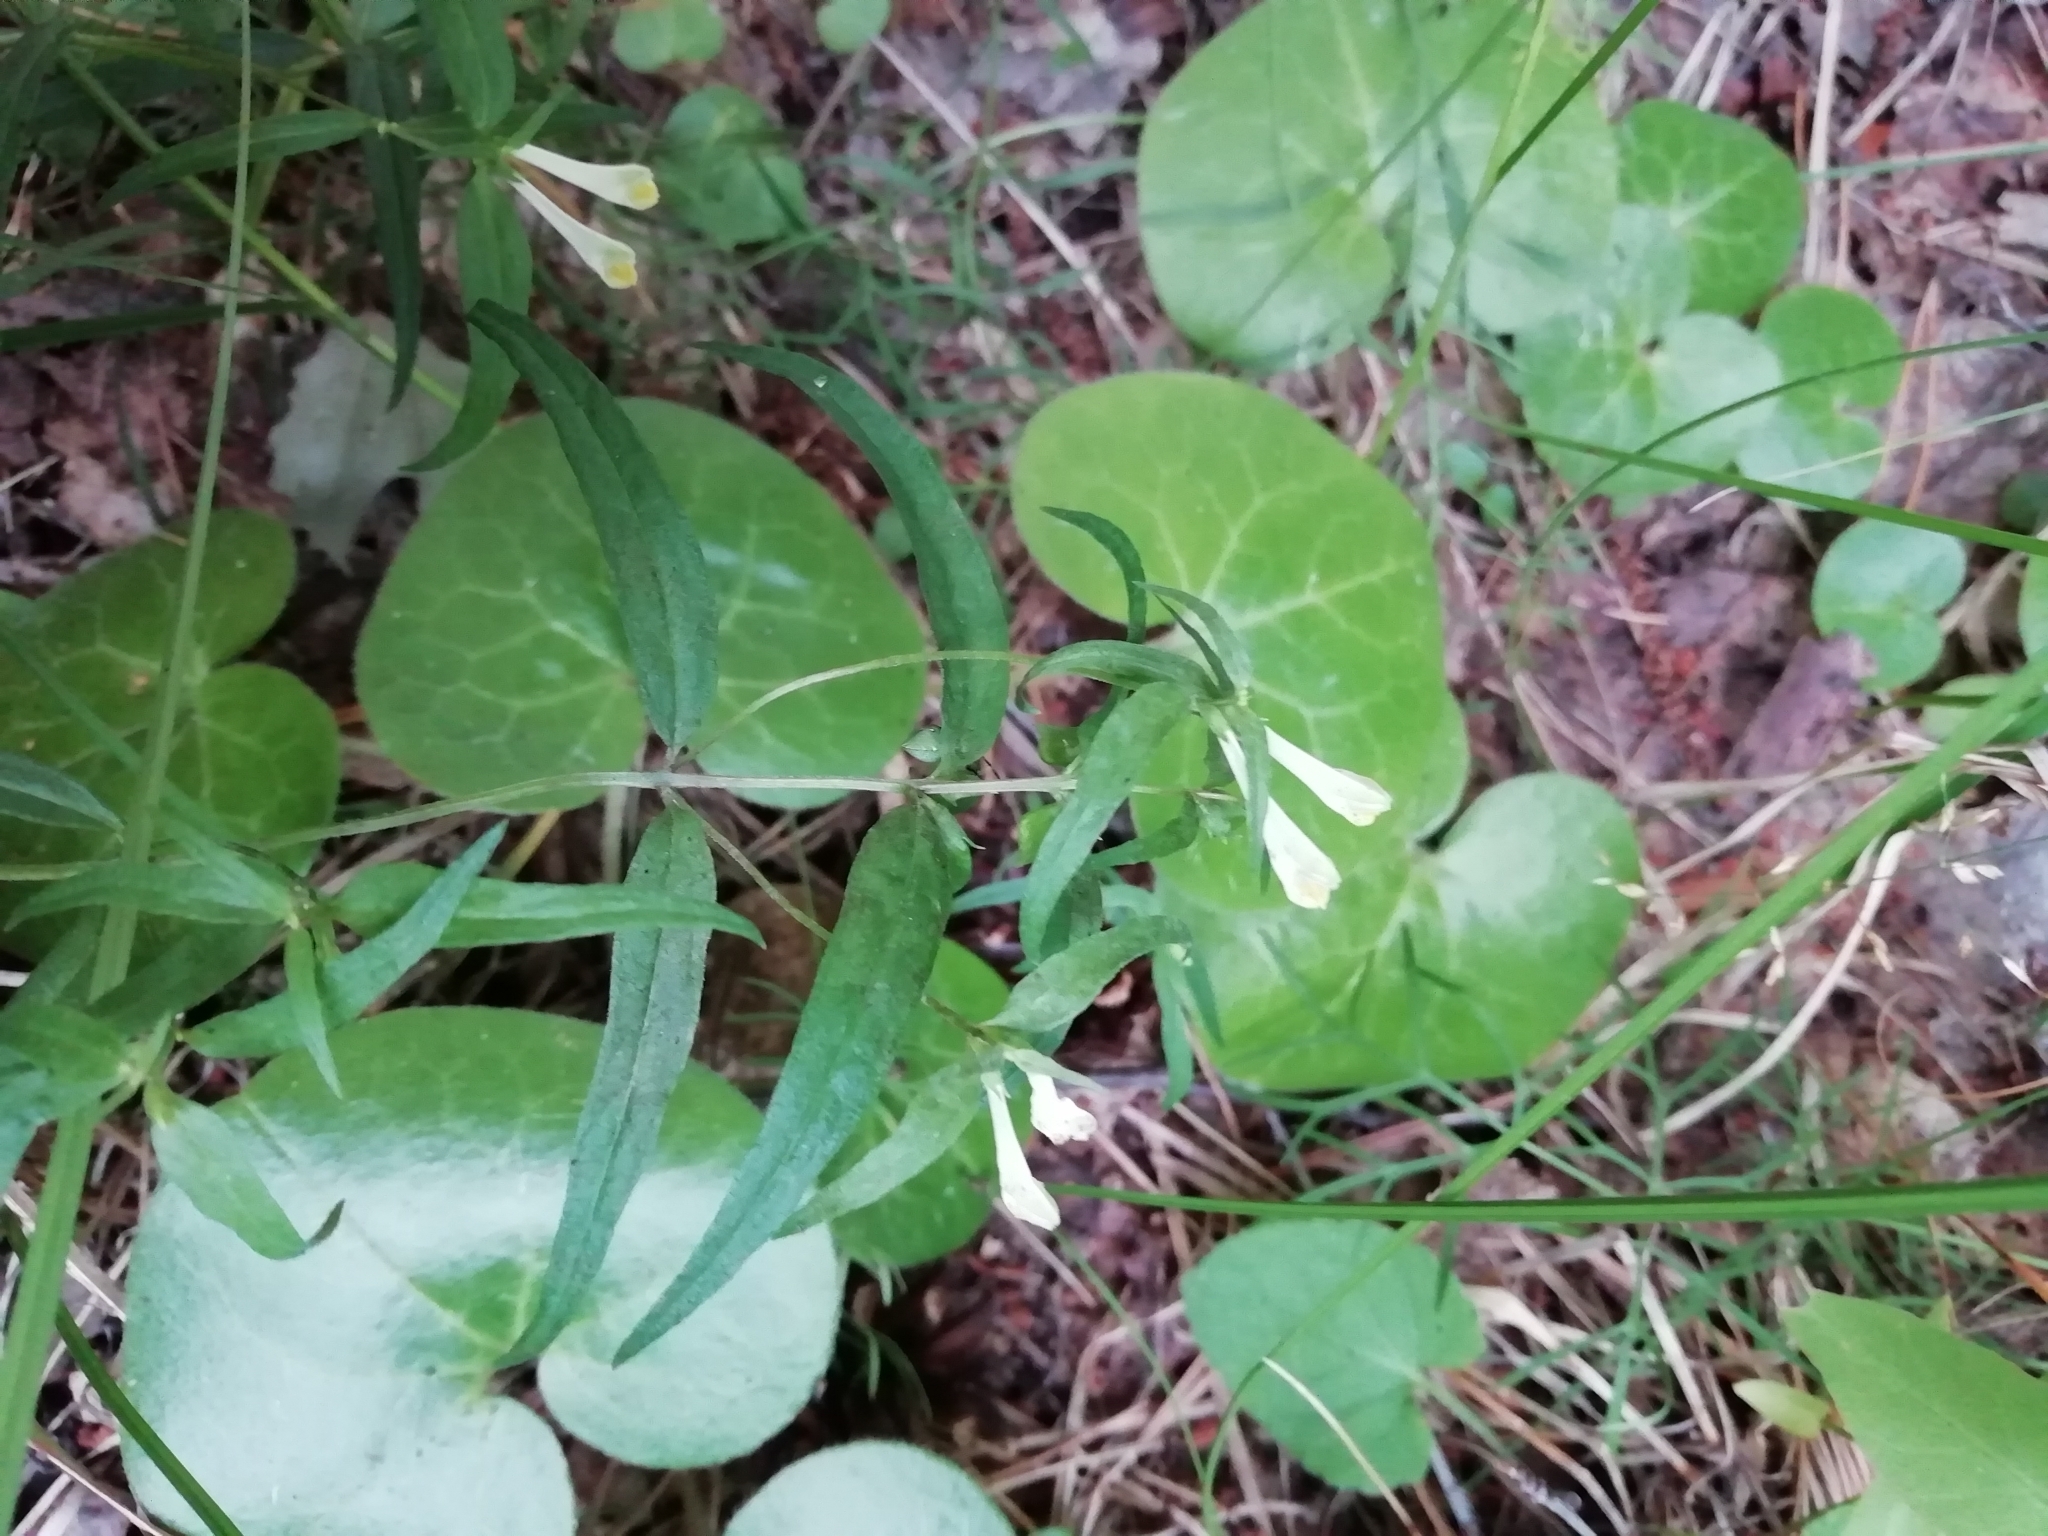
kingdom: Plantae
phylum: Tracheophyta
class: Magnoliopsida
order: Lamiales
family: Orobanchaceae
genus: Melampyrum
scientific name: Melampyrum pratense
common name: Common cow-wheat
